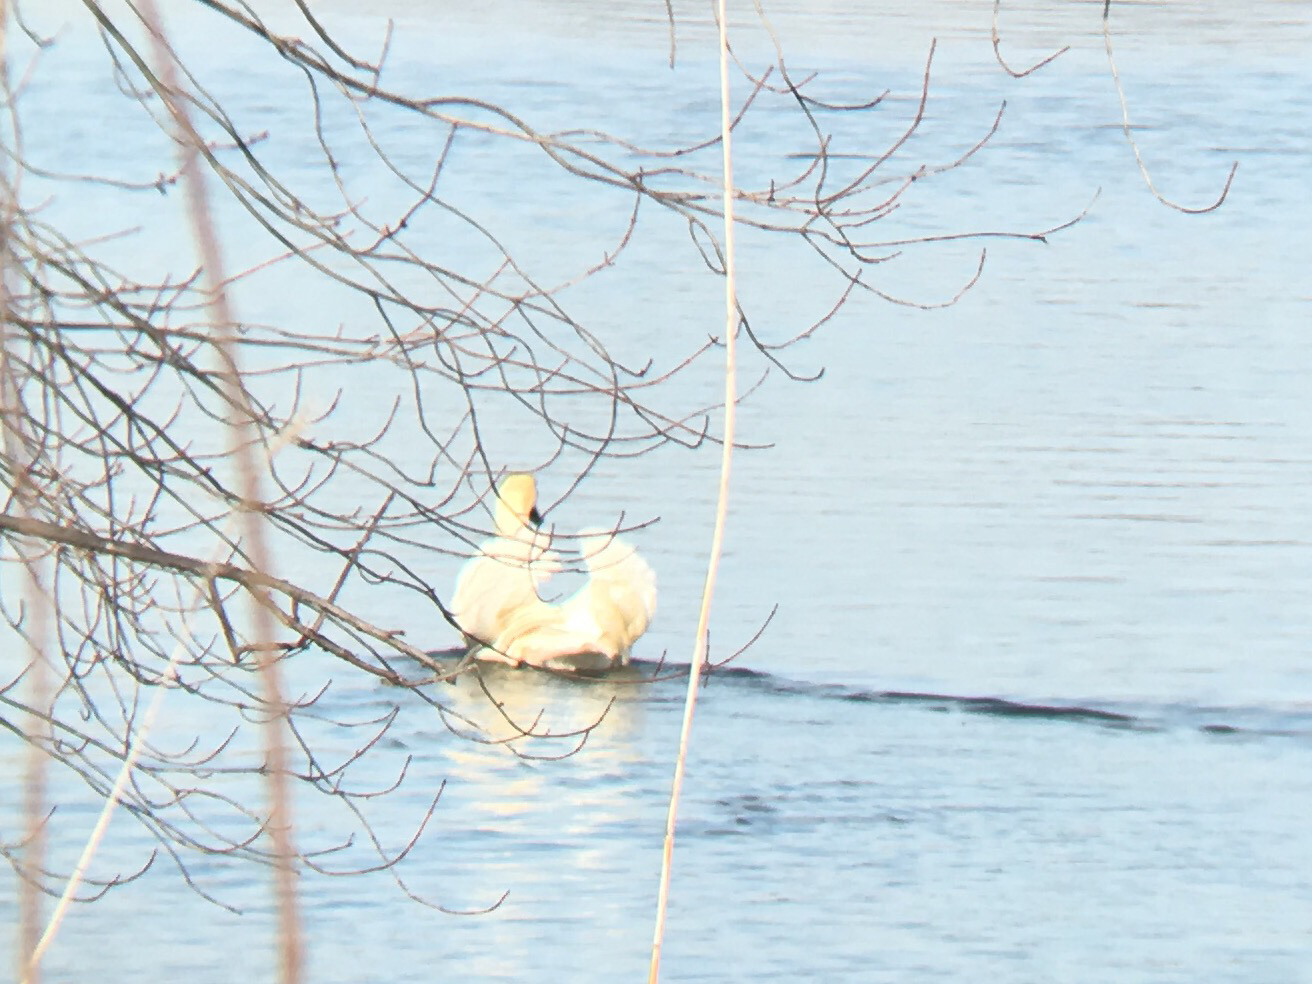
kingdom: Animalia
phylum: Chordata
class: Aves
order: Anseriformes
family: Anatidae
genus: Cygnus
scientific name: Cygnus olor
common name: Mute swan
